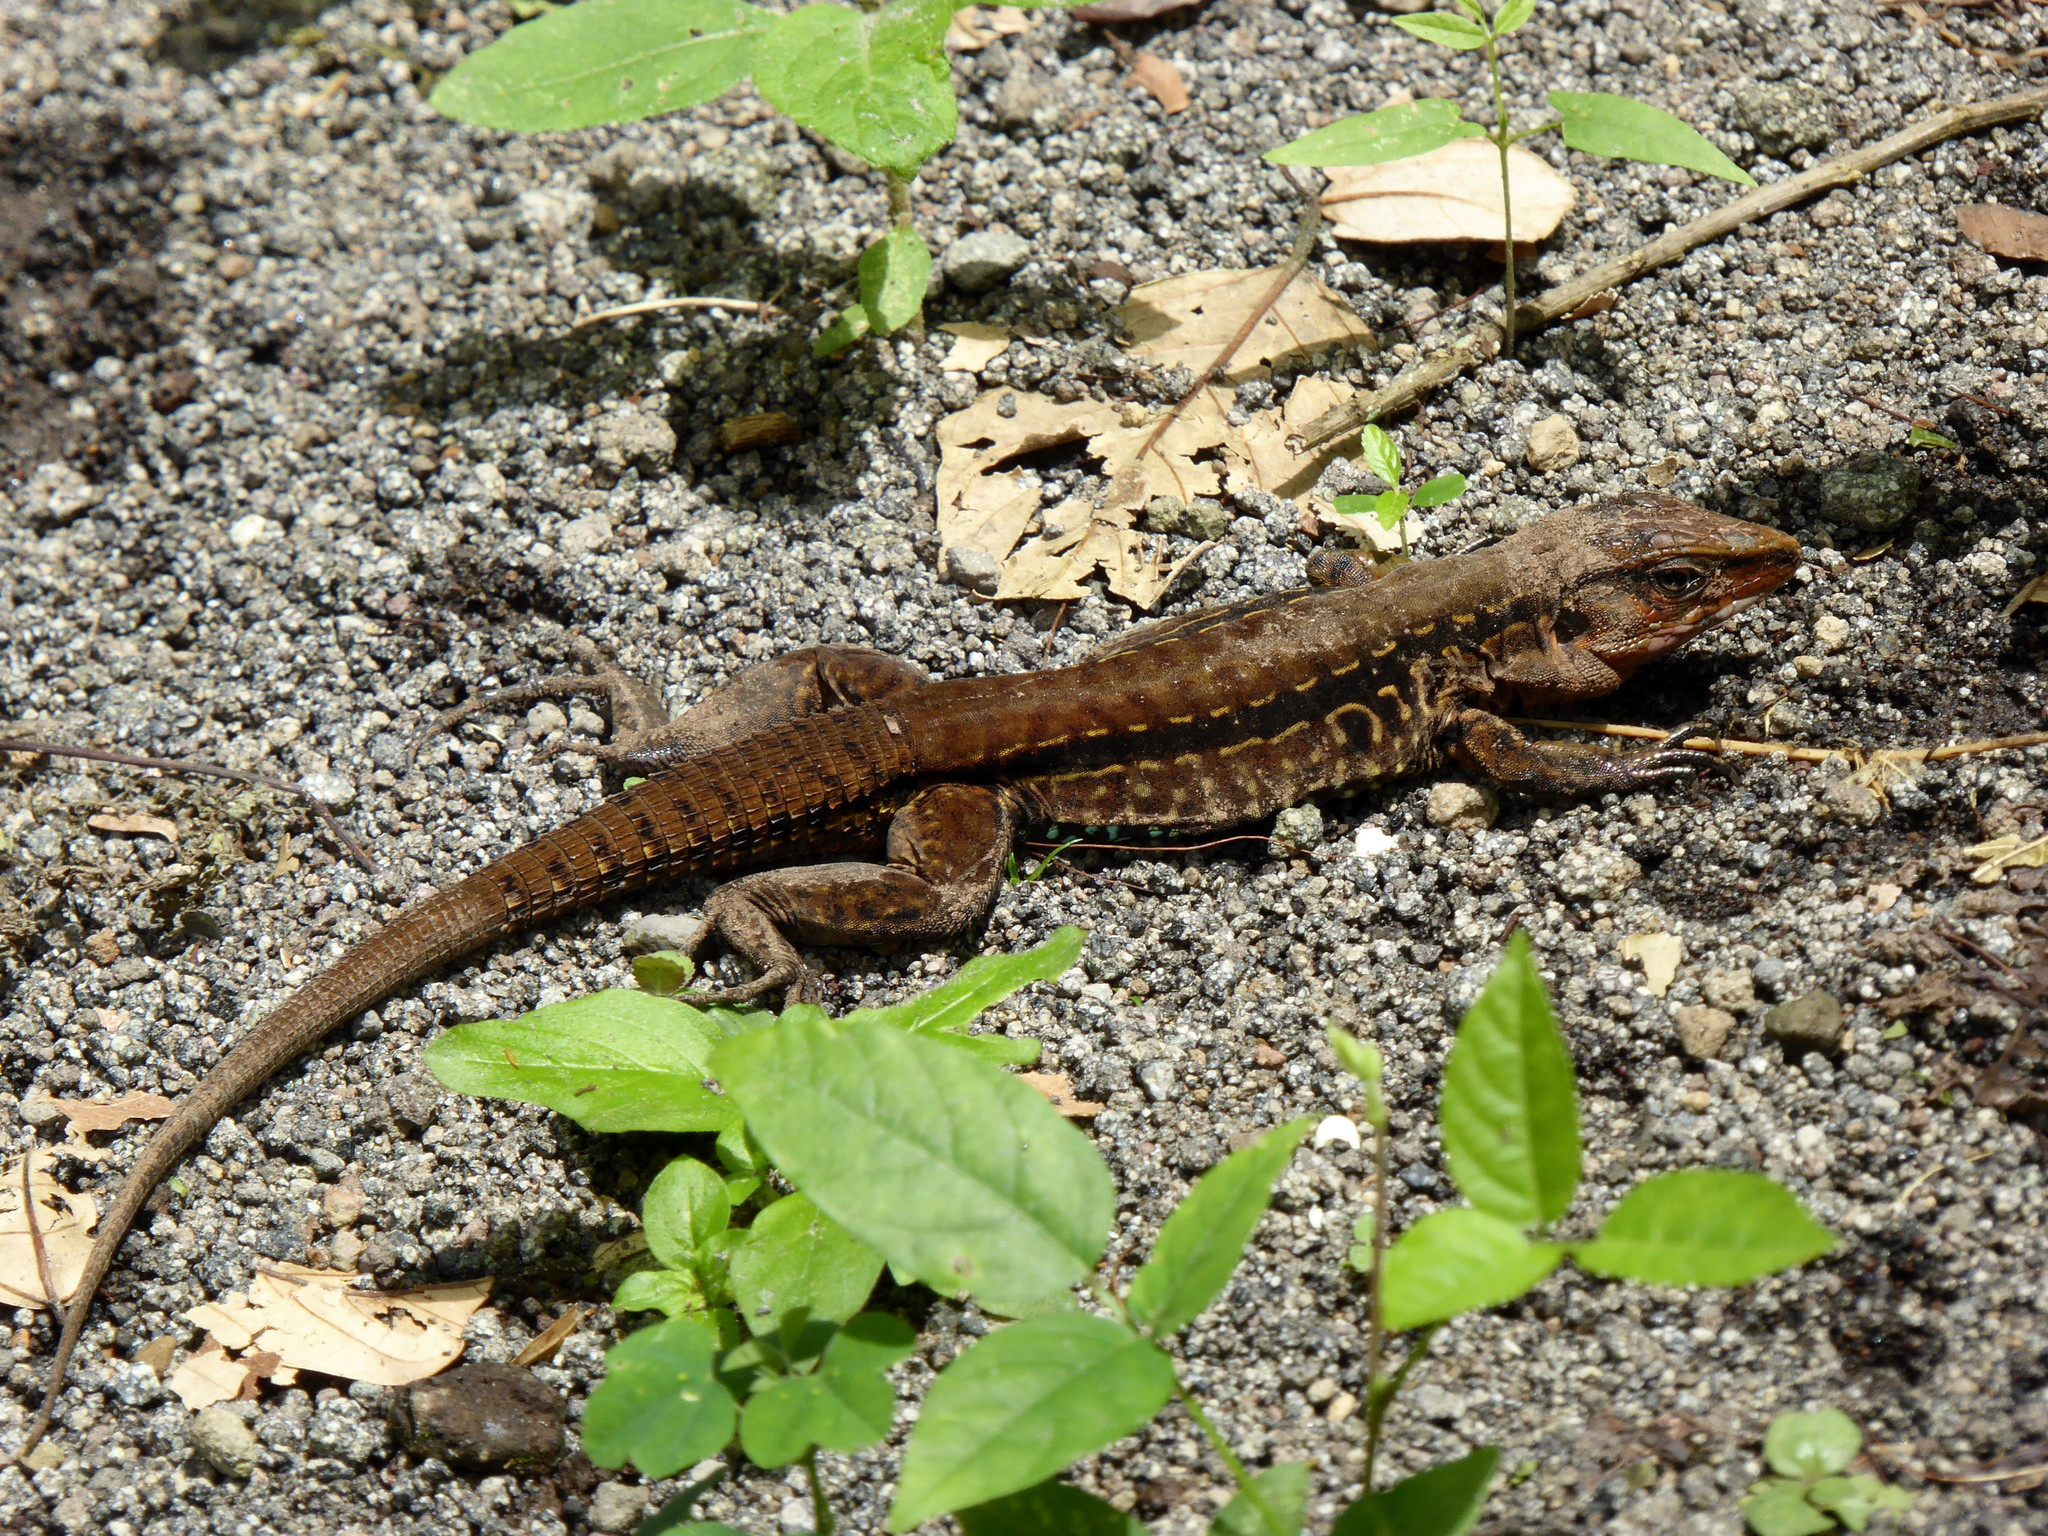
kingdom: Animalia
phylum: Chordata
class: Squamata
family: Teiidae
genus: Holcosus
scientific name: Holcosus festivus
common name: Middle american ameiva
